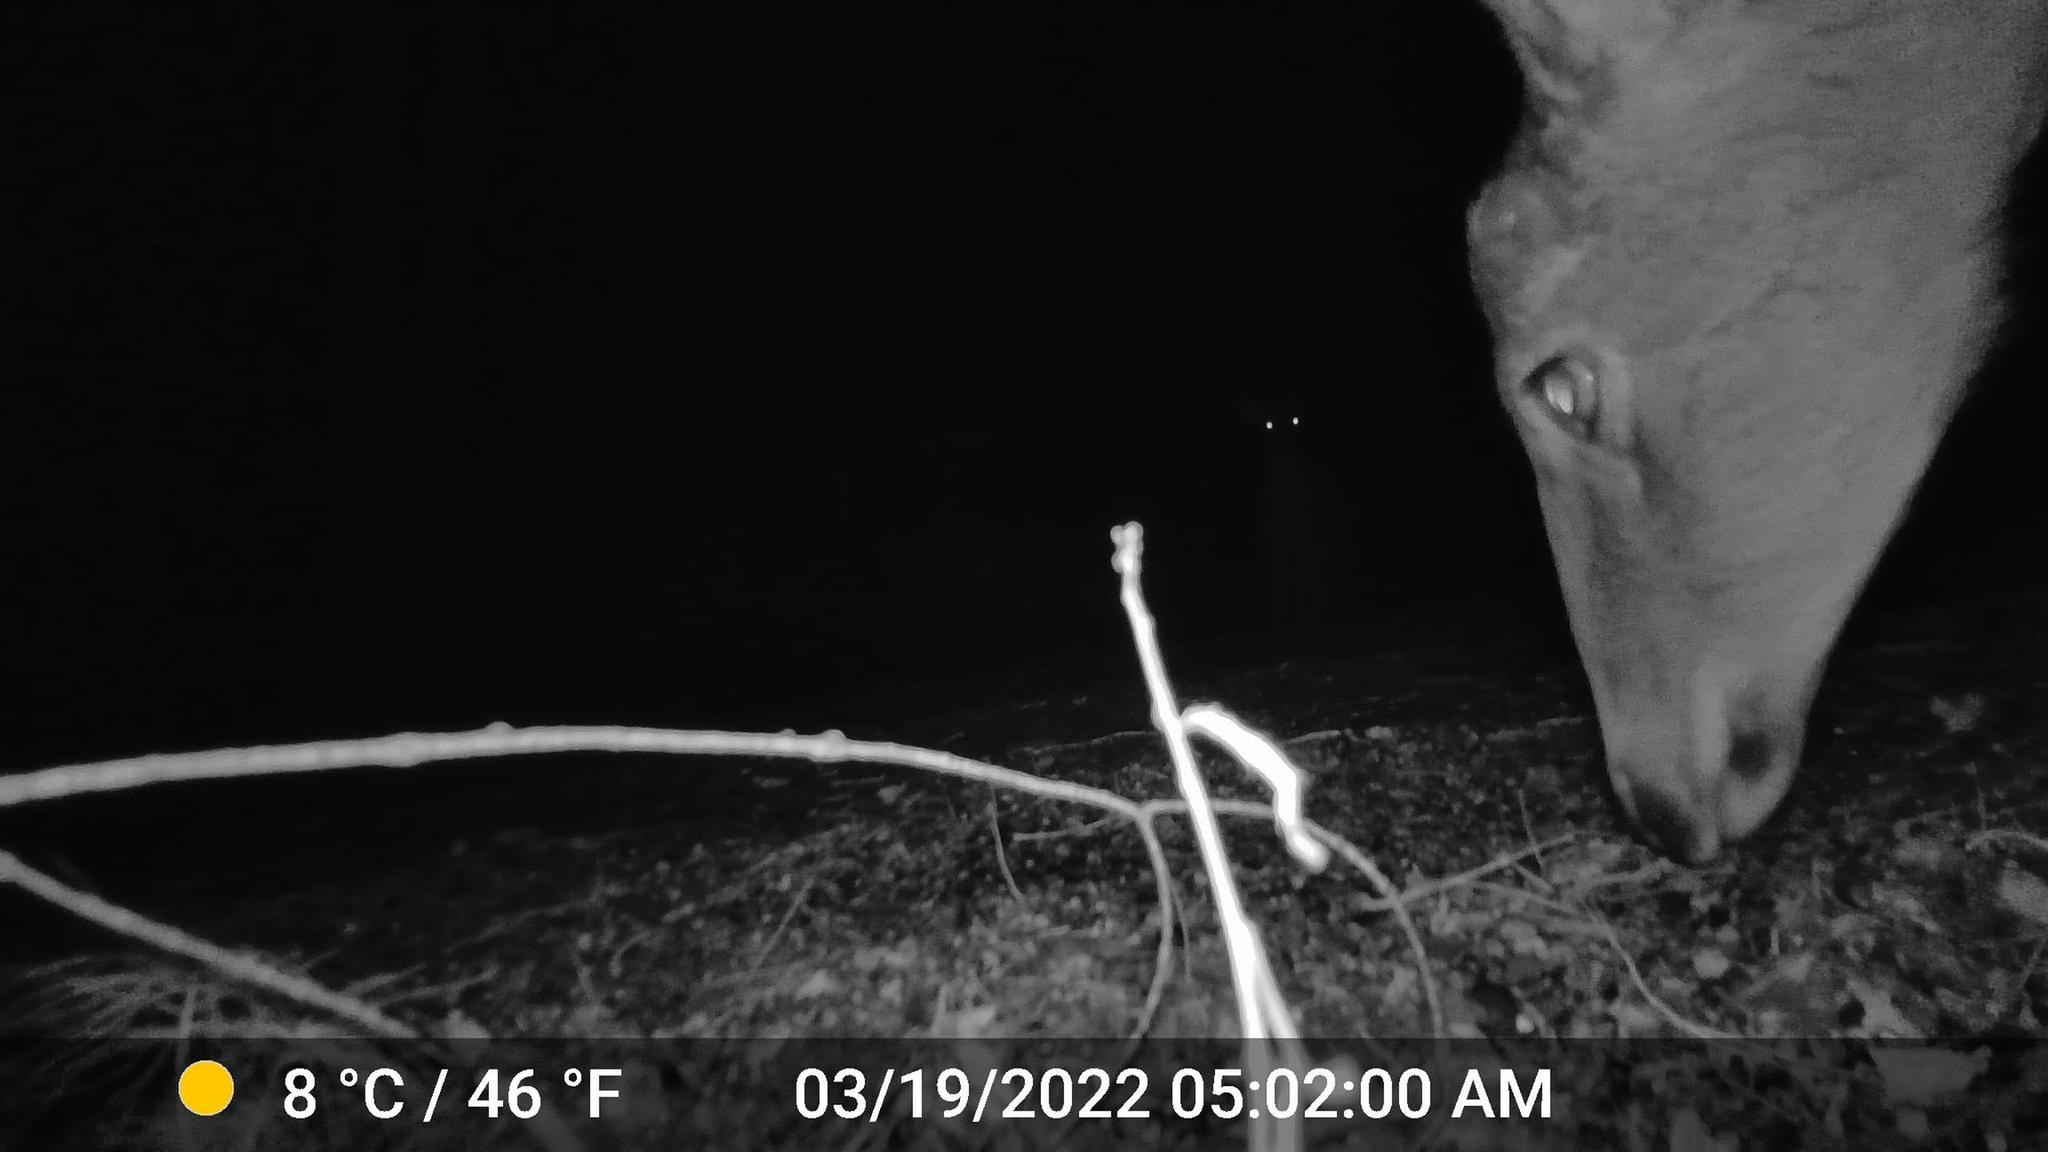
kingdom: Animalia
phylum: Chordata
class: Mammalia
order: Artiodactyla
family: Cervidae
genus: Odocoileus
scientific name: Odocoileus virginianus
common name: White-tailed deer
